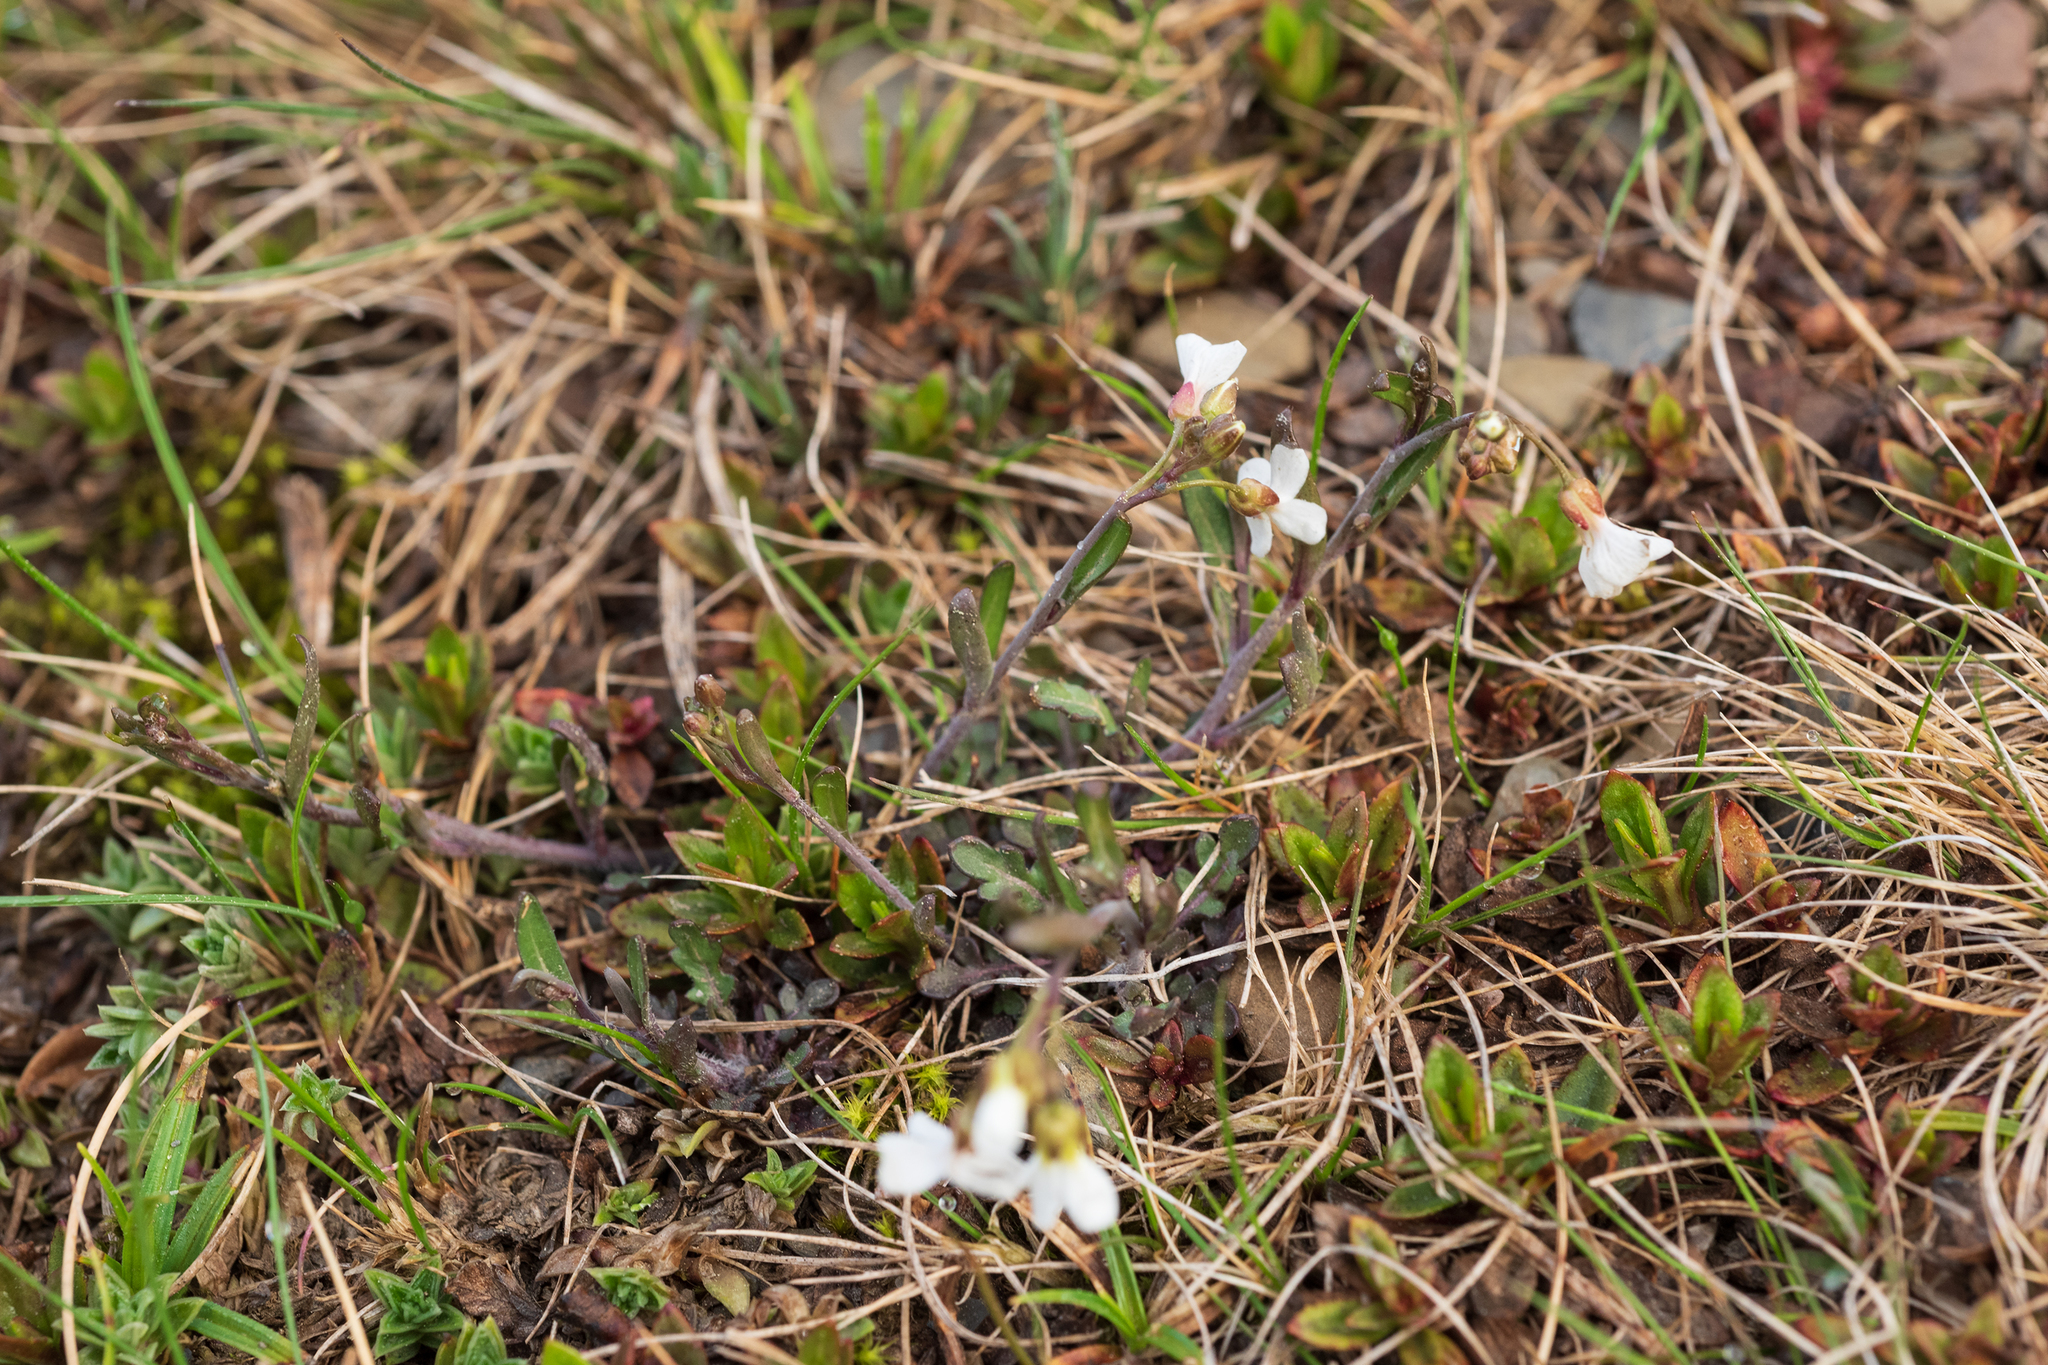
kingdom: Plantae
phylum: Tracheophyta
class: Magnoliopsida
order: Brassicales
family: Brassicaceae
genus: Arabidopsis
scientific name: Arabidopsis lyrata
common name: Lyrate rockcress
